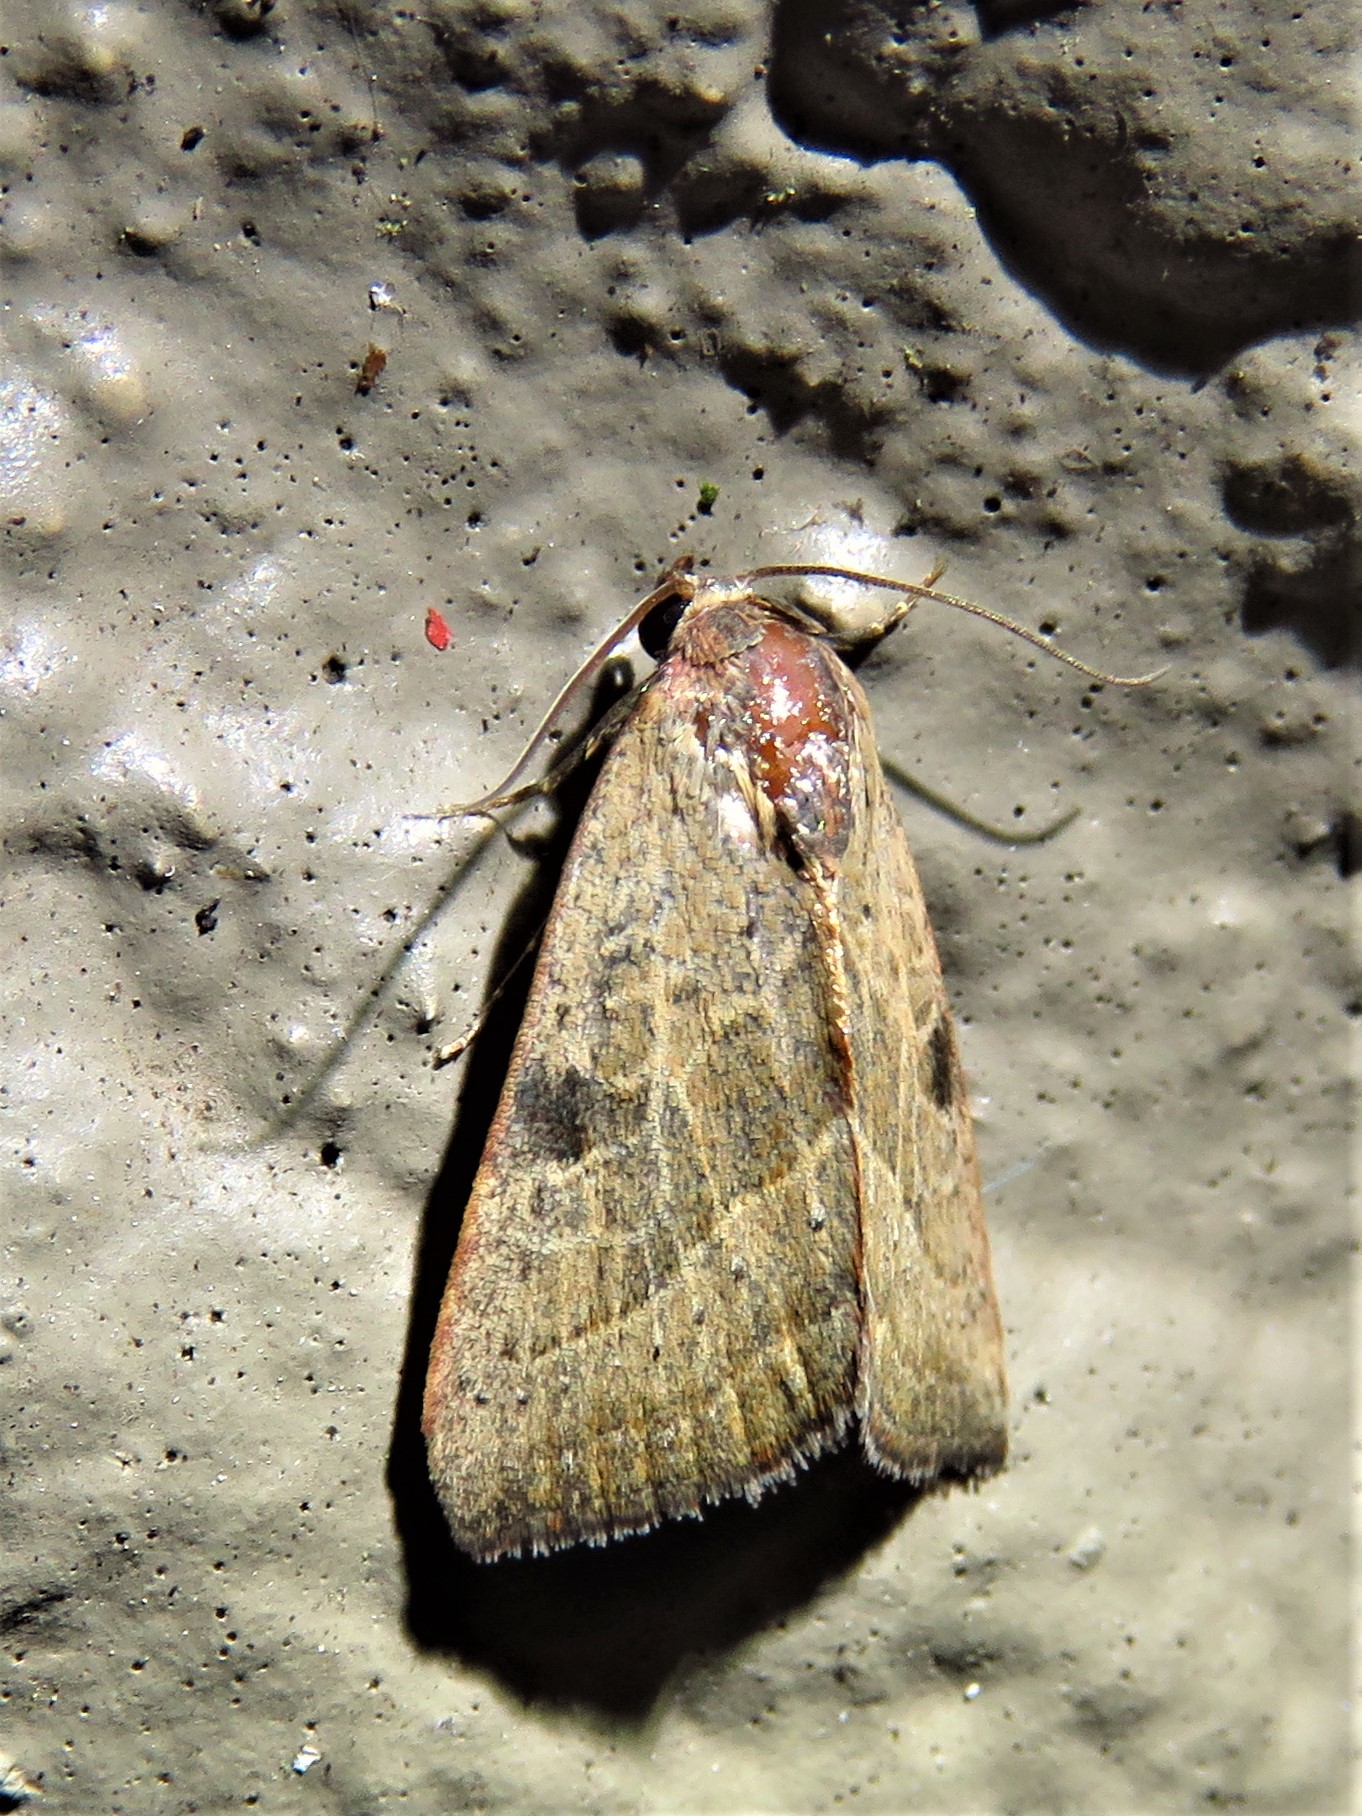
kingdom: Animalia
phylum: Arthropoda
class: Insecta
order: Lepidoptera
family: Noctuidae
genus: Galgula
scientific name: Galgula partita
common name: Wedgeling
